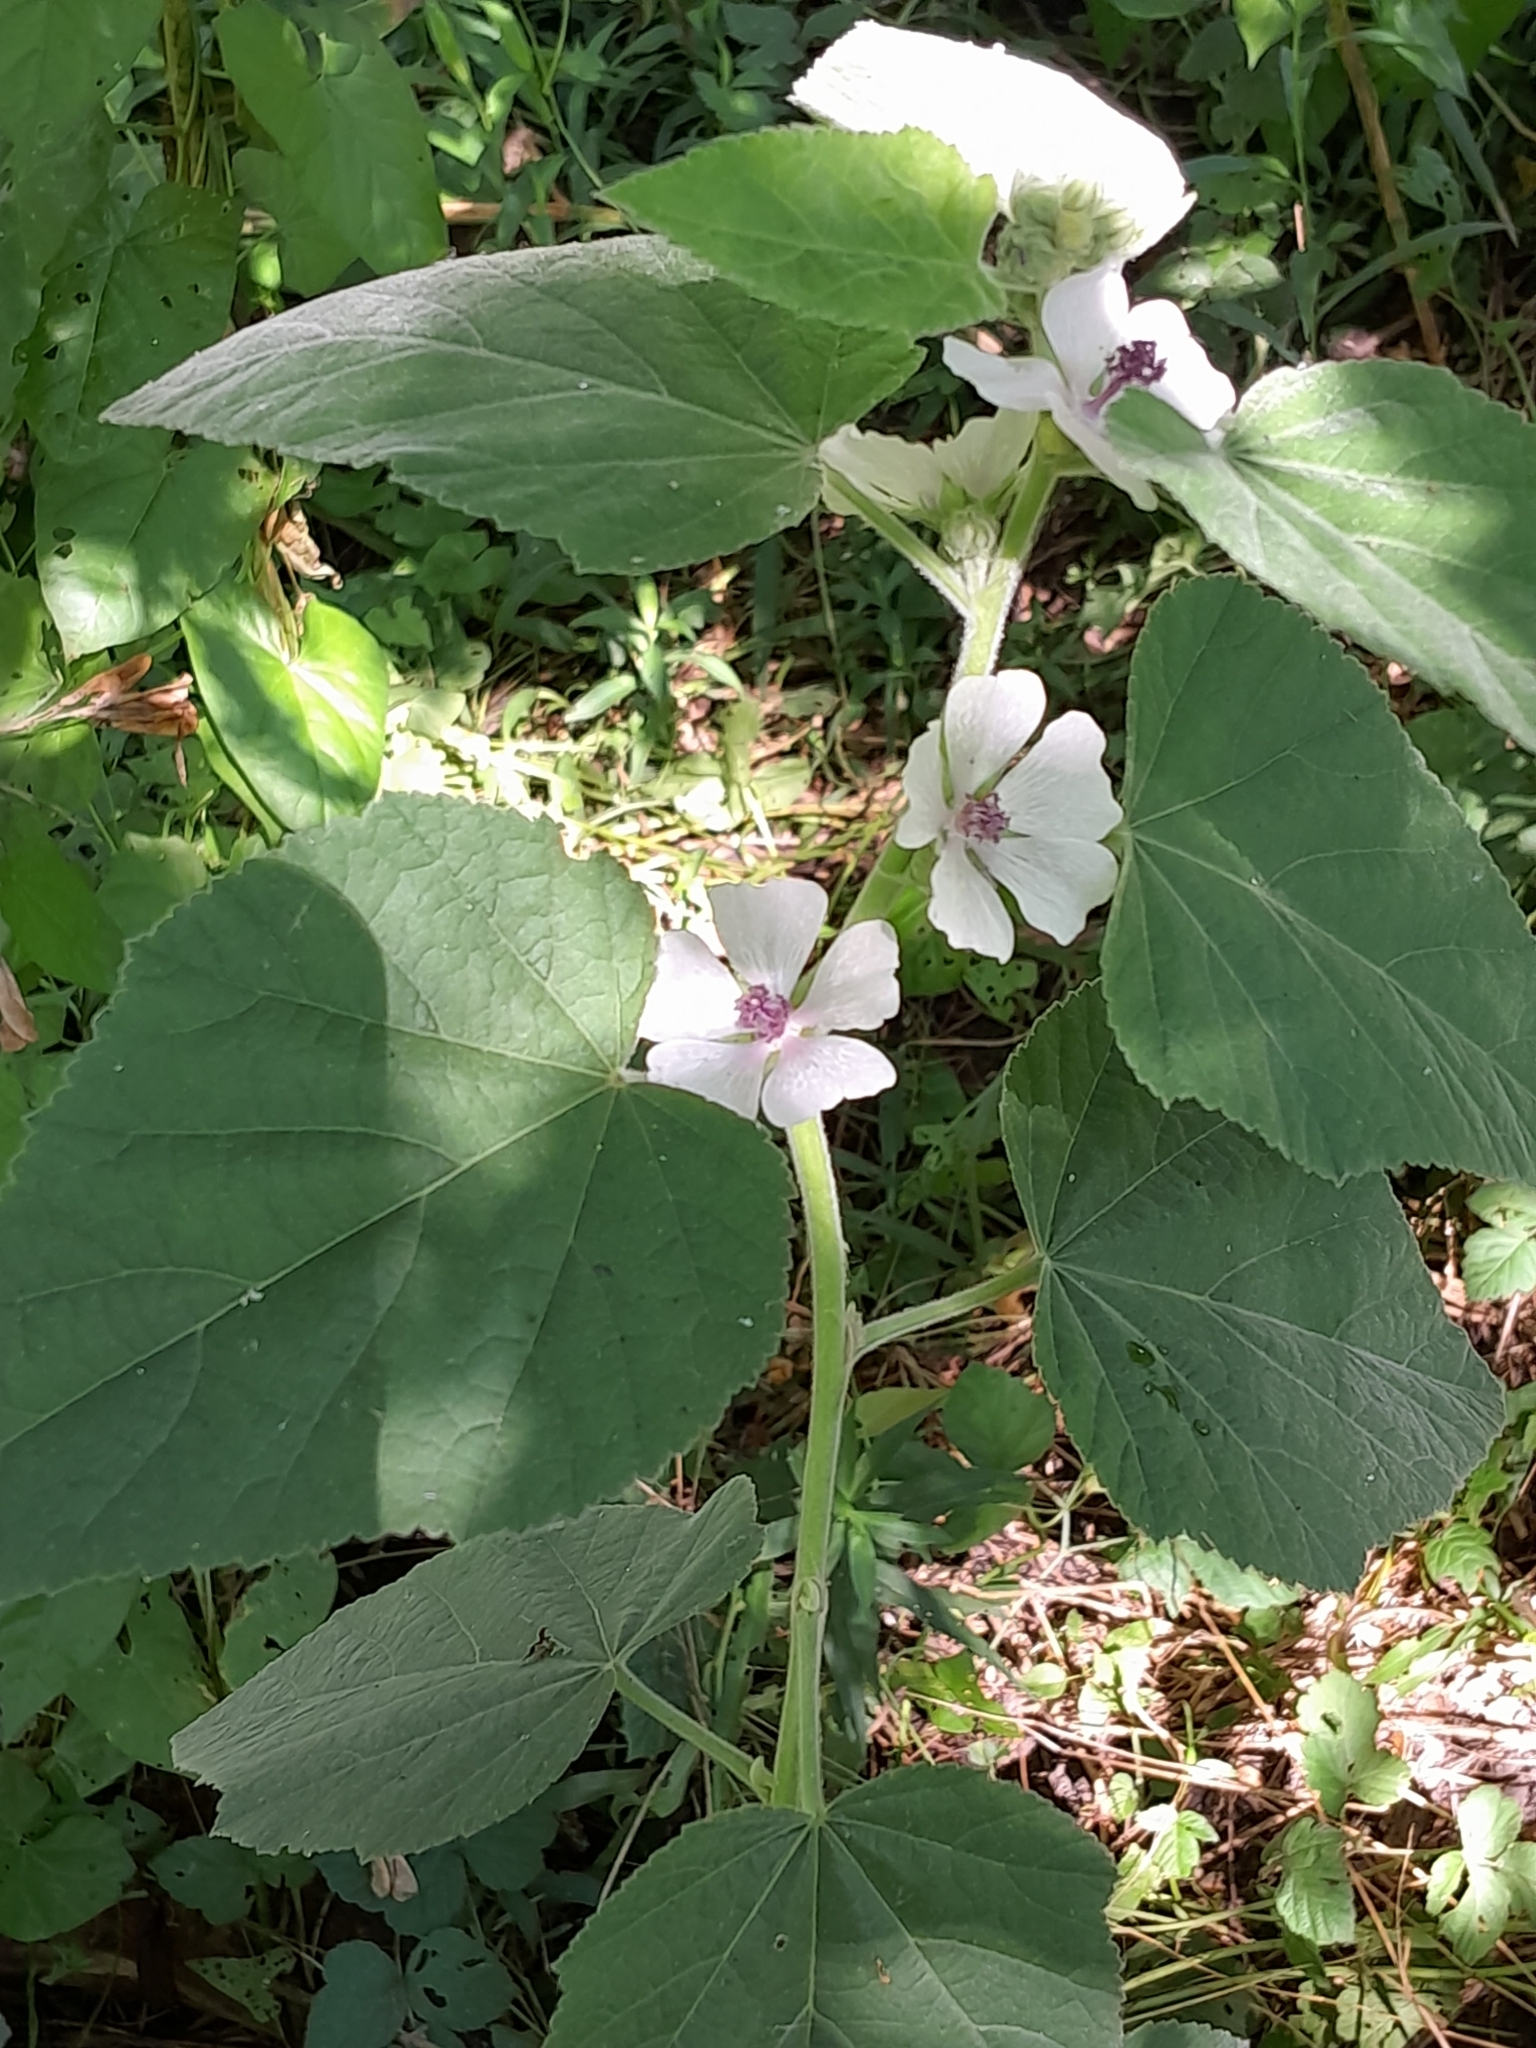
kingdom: Plantae
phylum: Tracheophyta
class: Magnoliopsida
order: Malvales
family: Malvaceae
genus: Althaea
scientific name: Althaea officinalis
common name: Marsh-mallow
